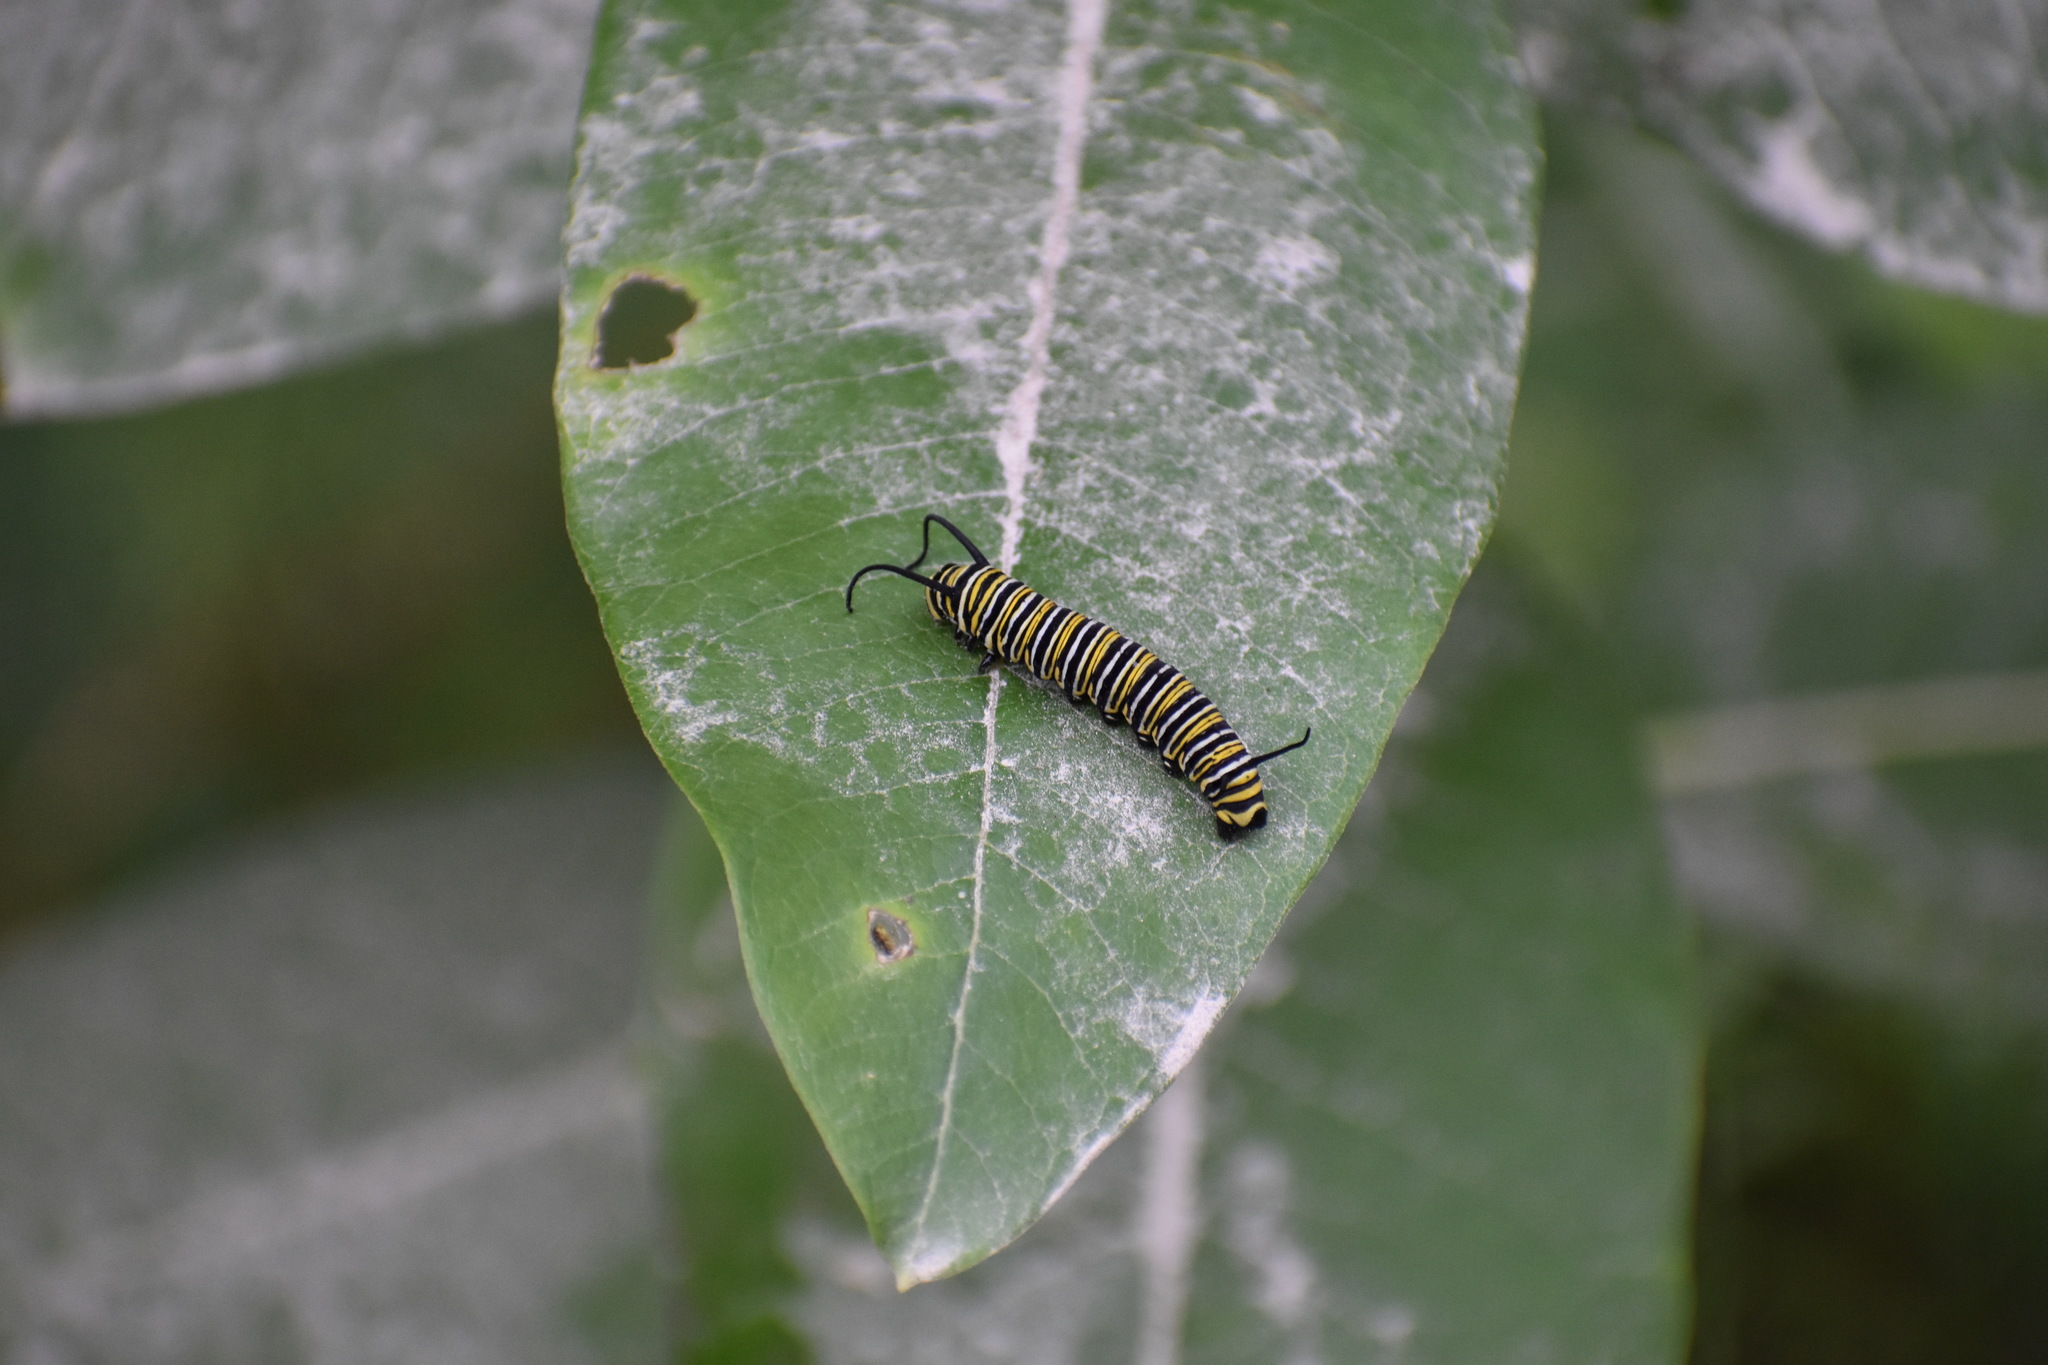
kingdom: Animalia
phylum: Arthropoda
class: Insecta
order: Lepidoptera
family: Nymphalidae
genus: Danaus
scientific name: Danaus plexippus
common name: Monarch
